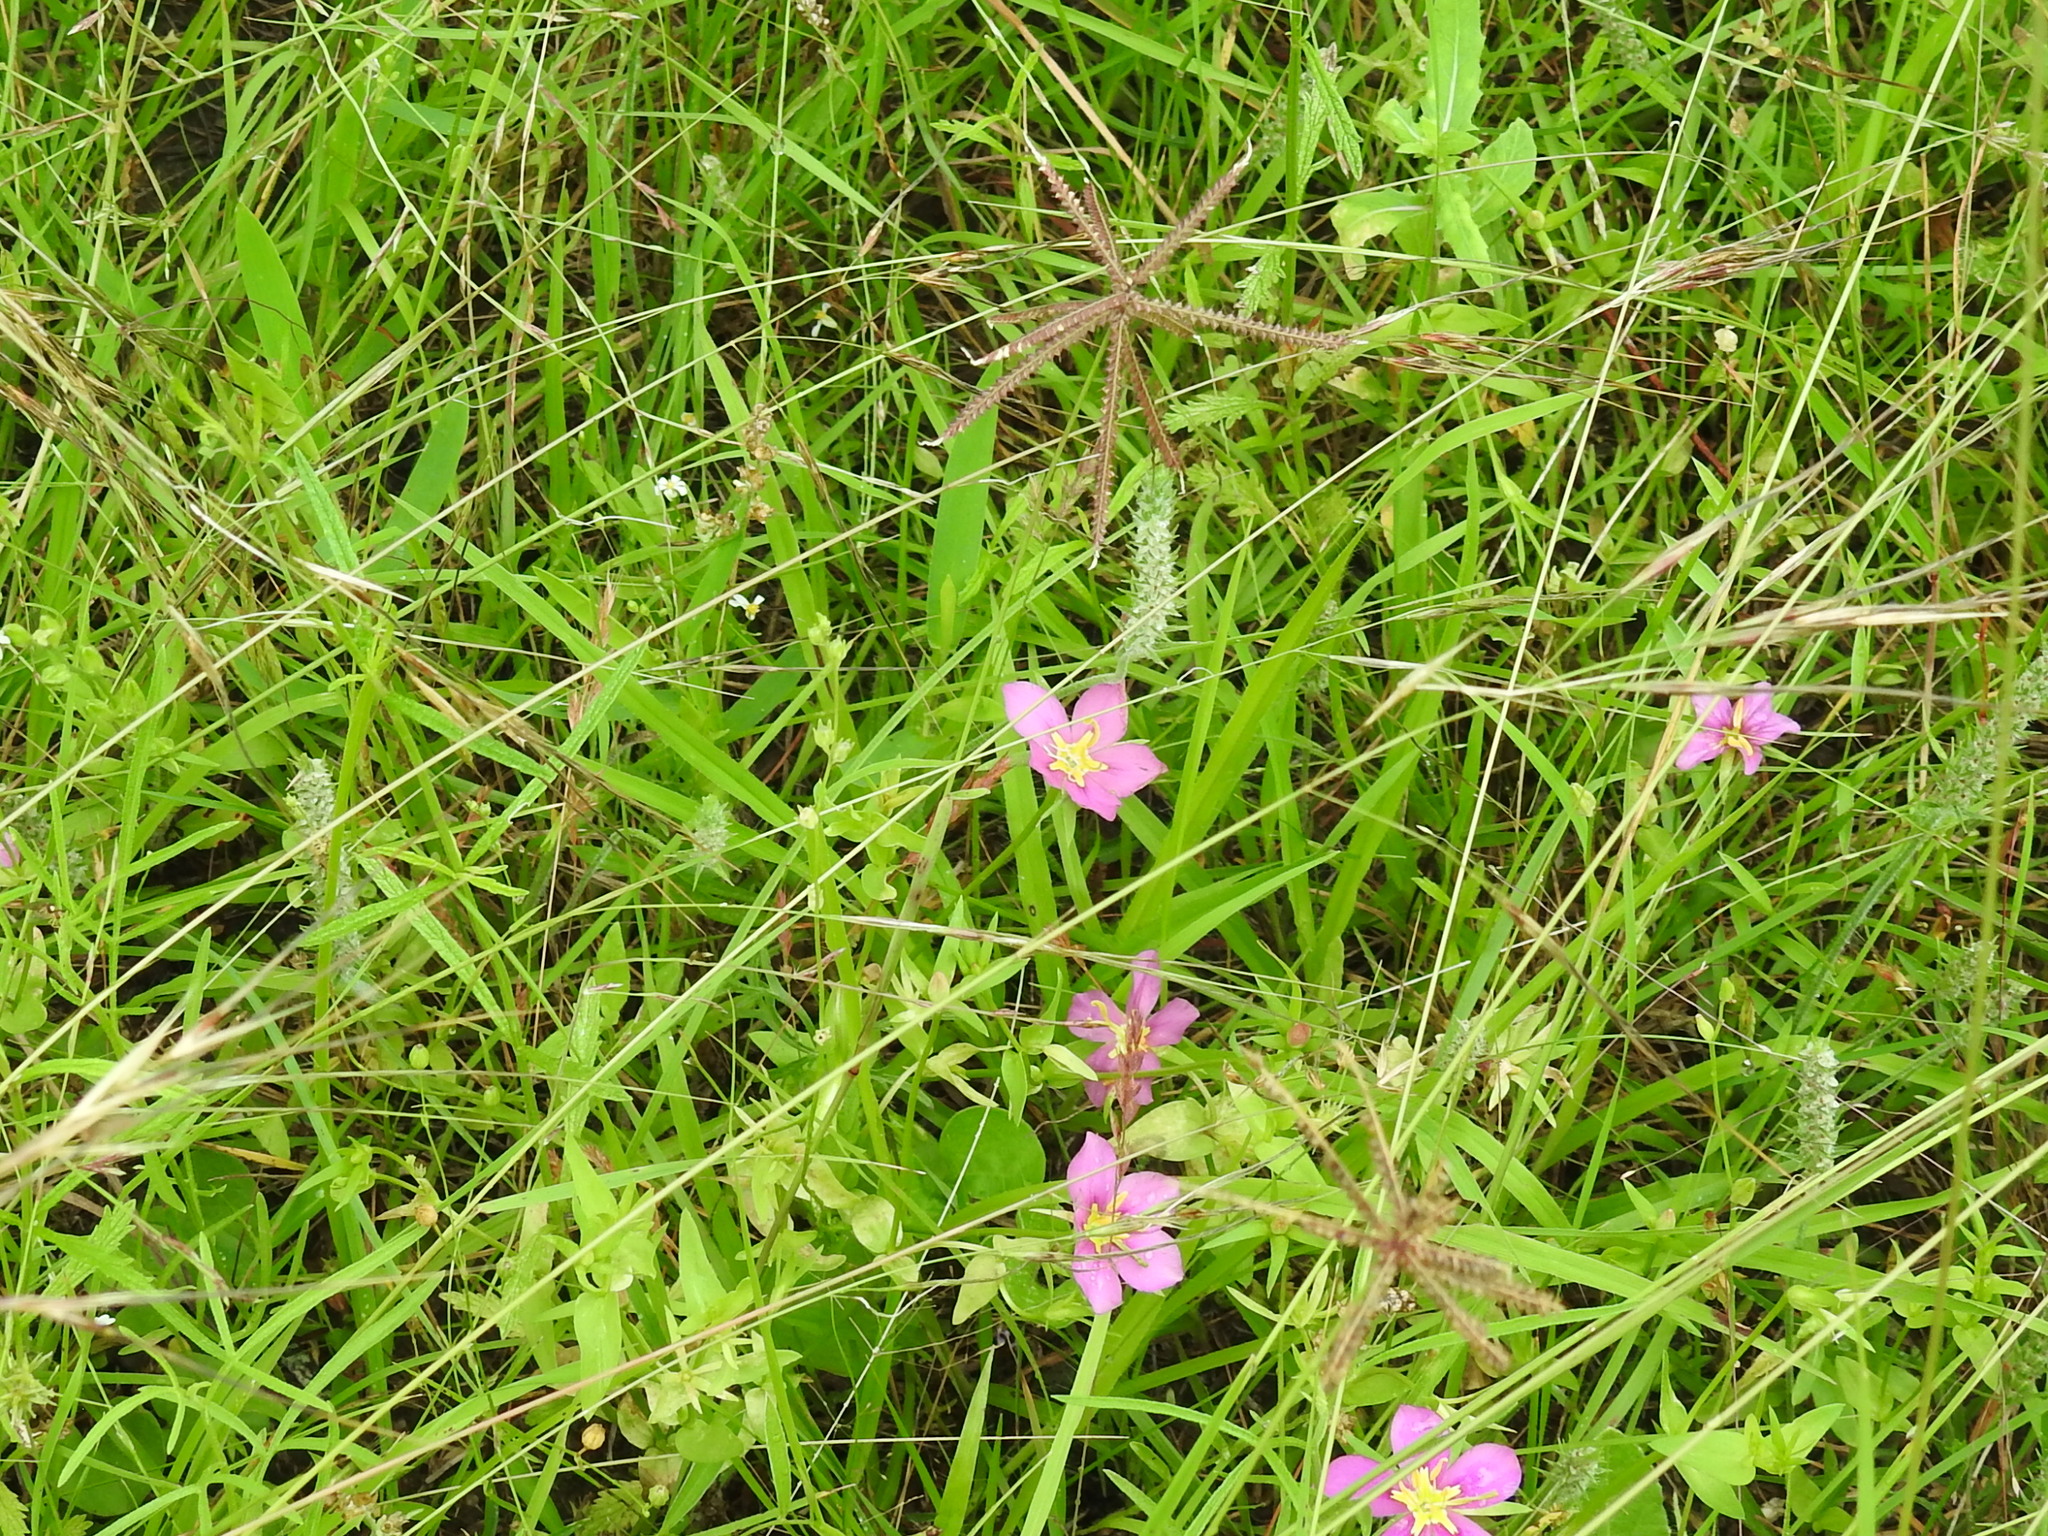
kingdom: Plantae
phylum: Tracheophyta
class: Liliopsida
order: Poales
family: Poaceae
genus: Chloris
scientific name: Chloris cucullata
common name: Hooded windmill grass
